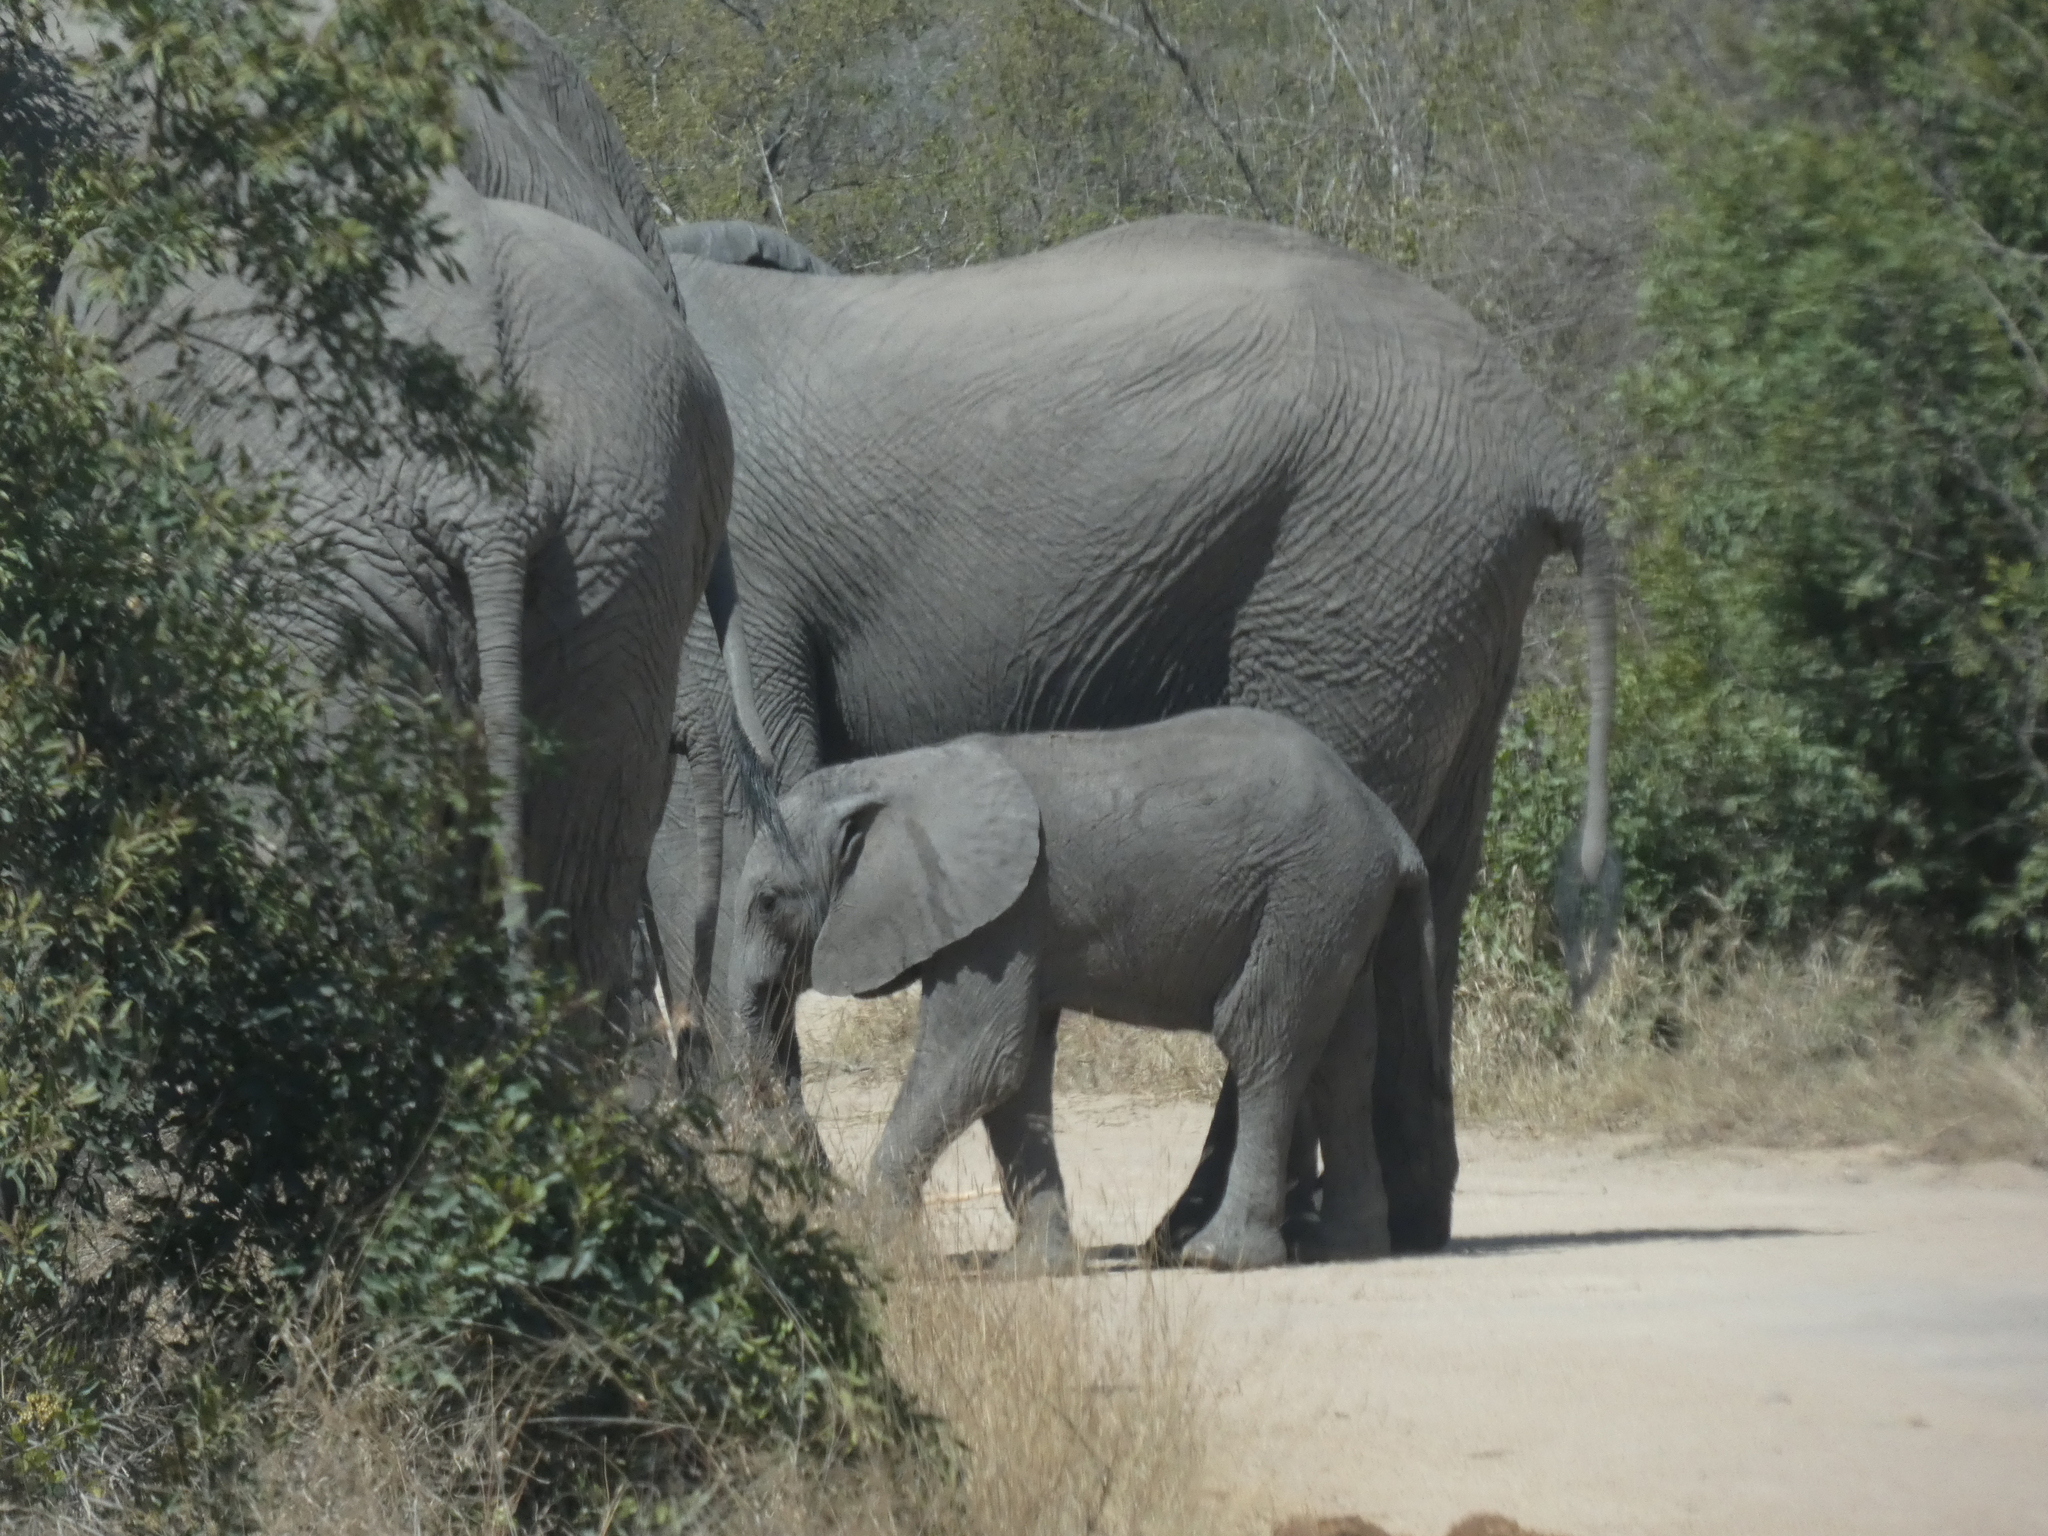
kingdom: Animalia
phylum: Chordata
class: Mammalia
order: Proboscidea
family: Elephantidae
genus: Loxodonta
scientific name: Loxodonta africana
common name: African elephant
